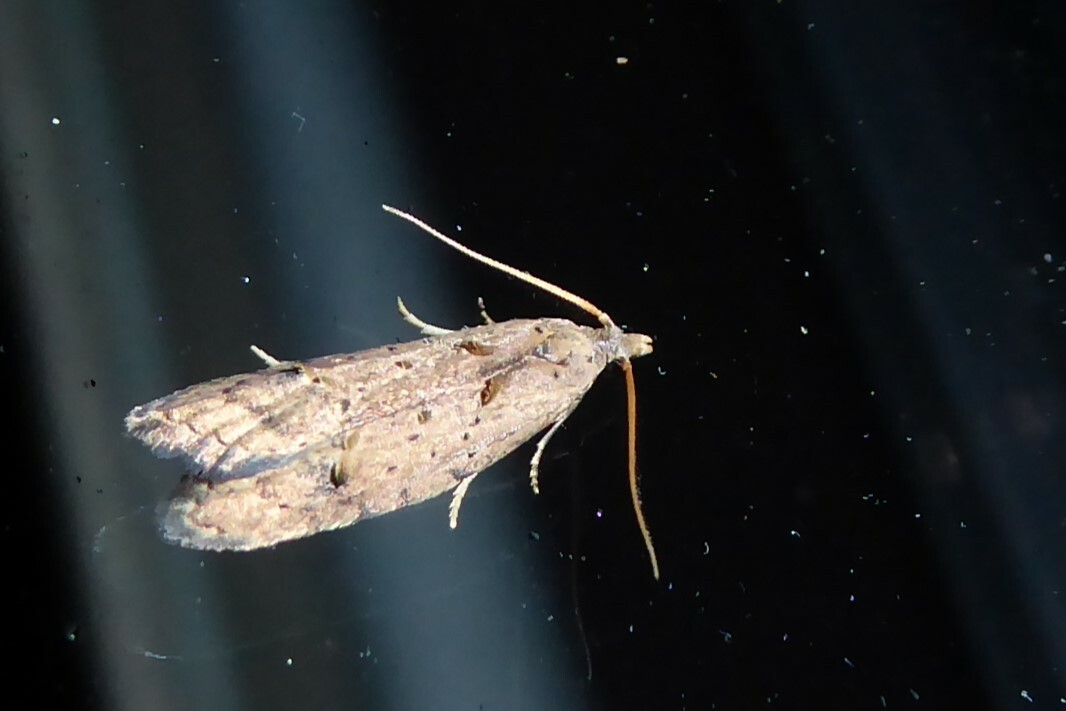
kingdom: Animalia
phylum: Arthropoda
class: Insecta
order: Lepidoptera
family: Carposinidae
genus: Carposina
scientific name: Carposina rubophaga
